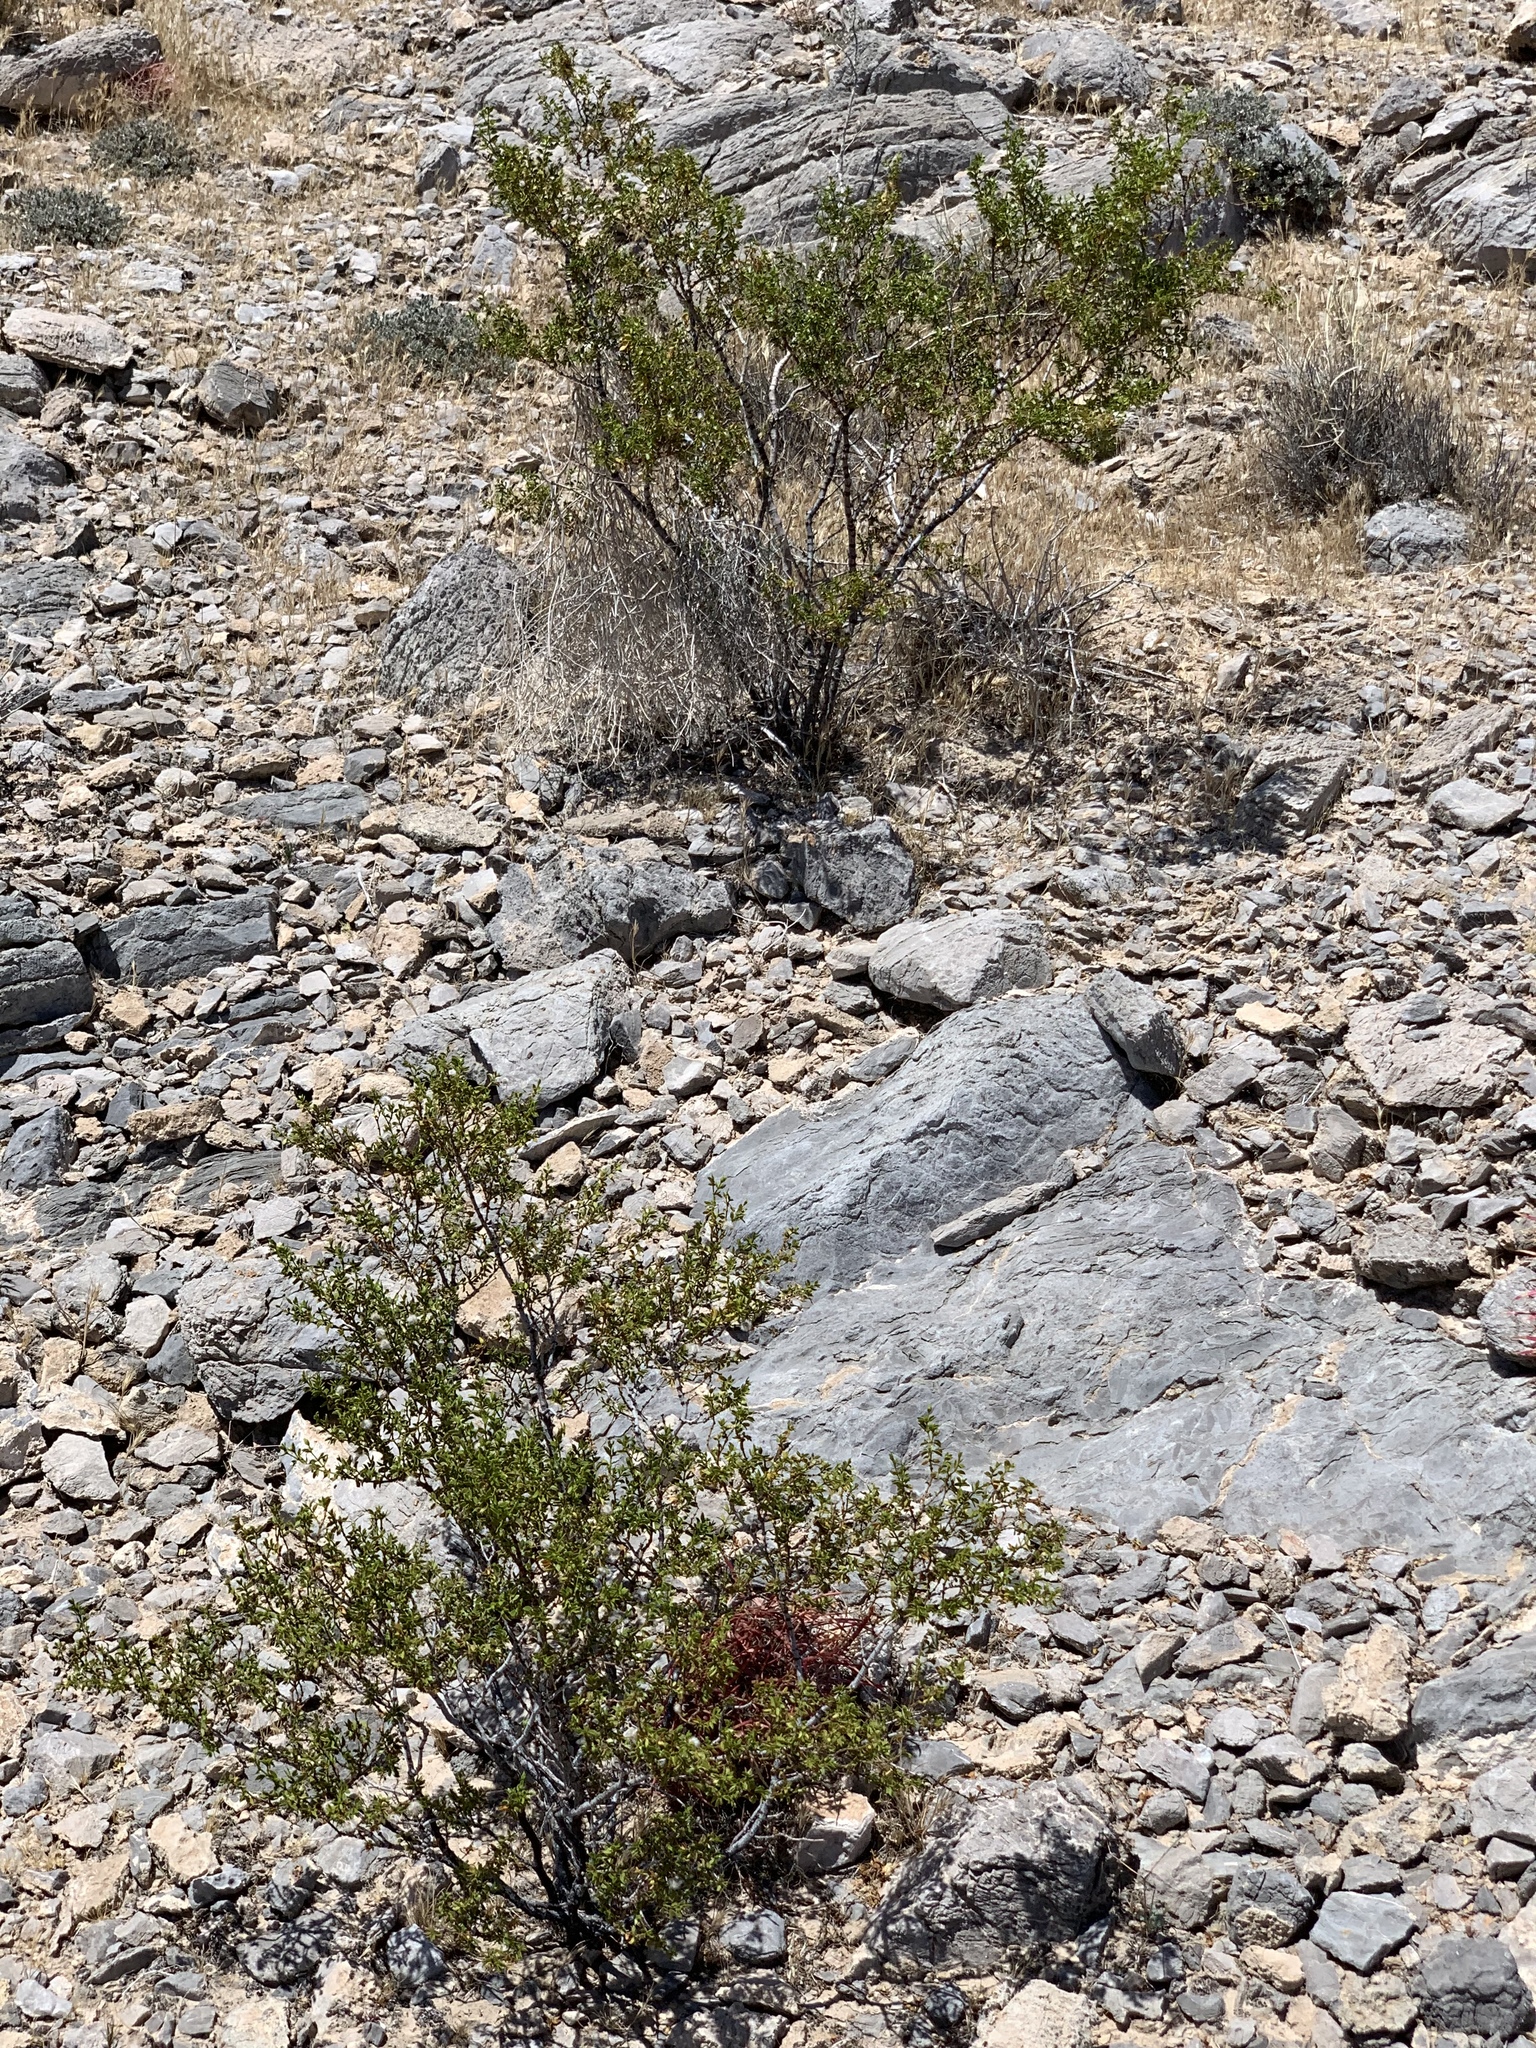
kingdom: Plantae
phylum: Tracheophyta
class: Magnoliopsida
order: Zygophyllales
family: Zygophyllaceae
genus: Larrea
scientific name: Larrea tridentata
